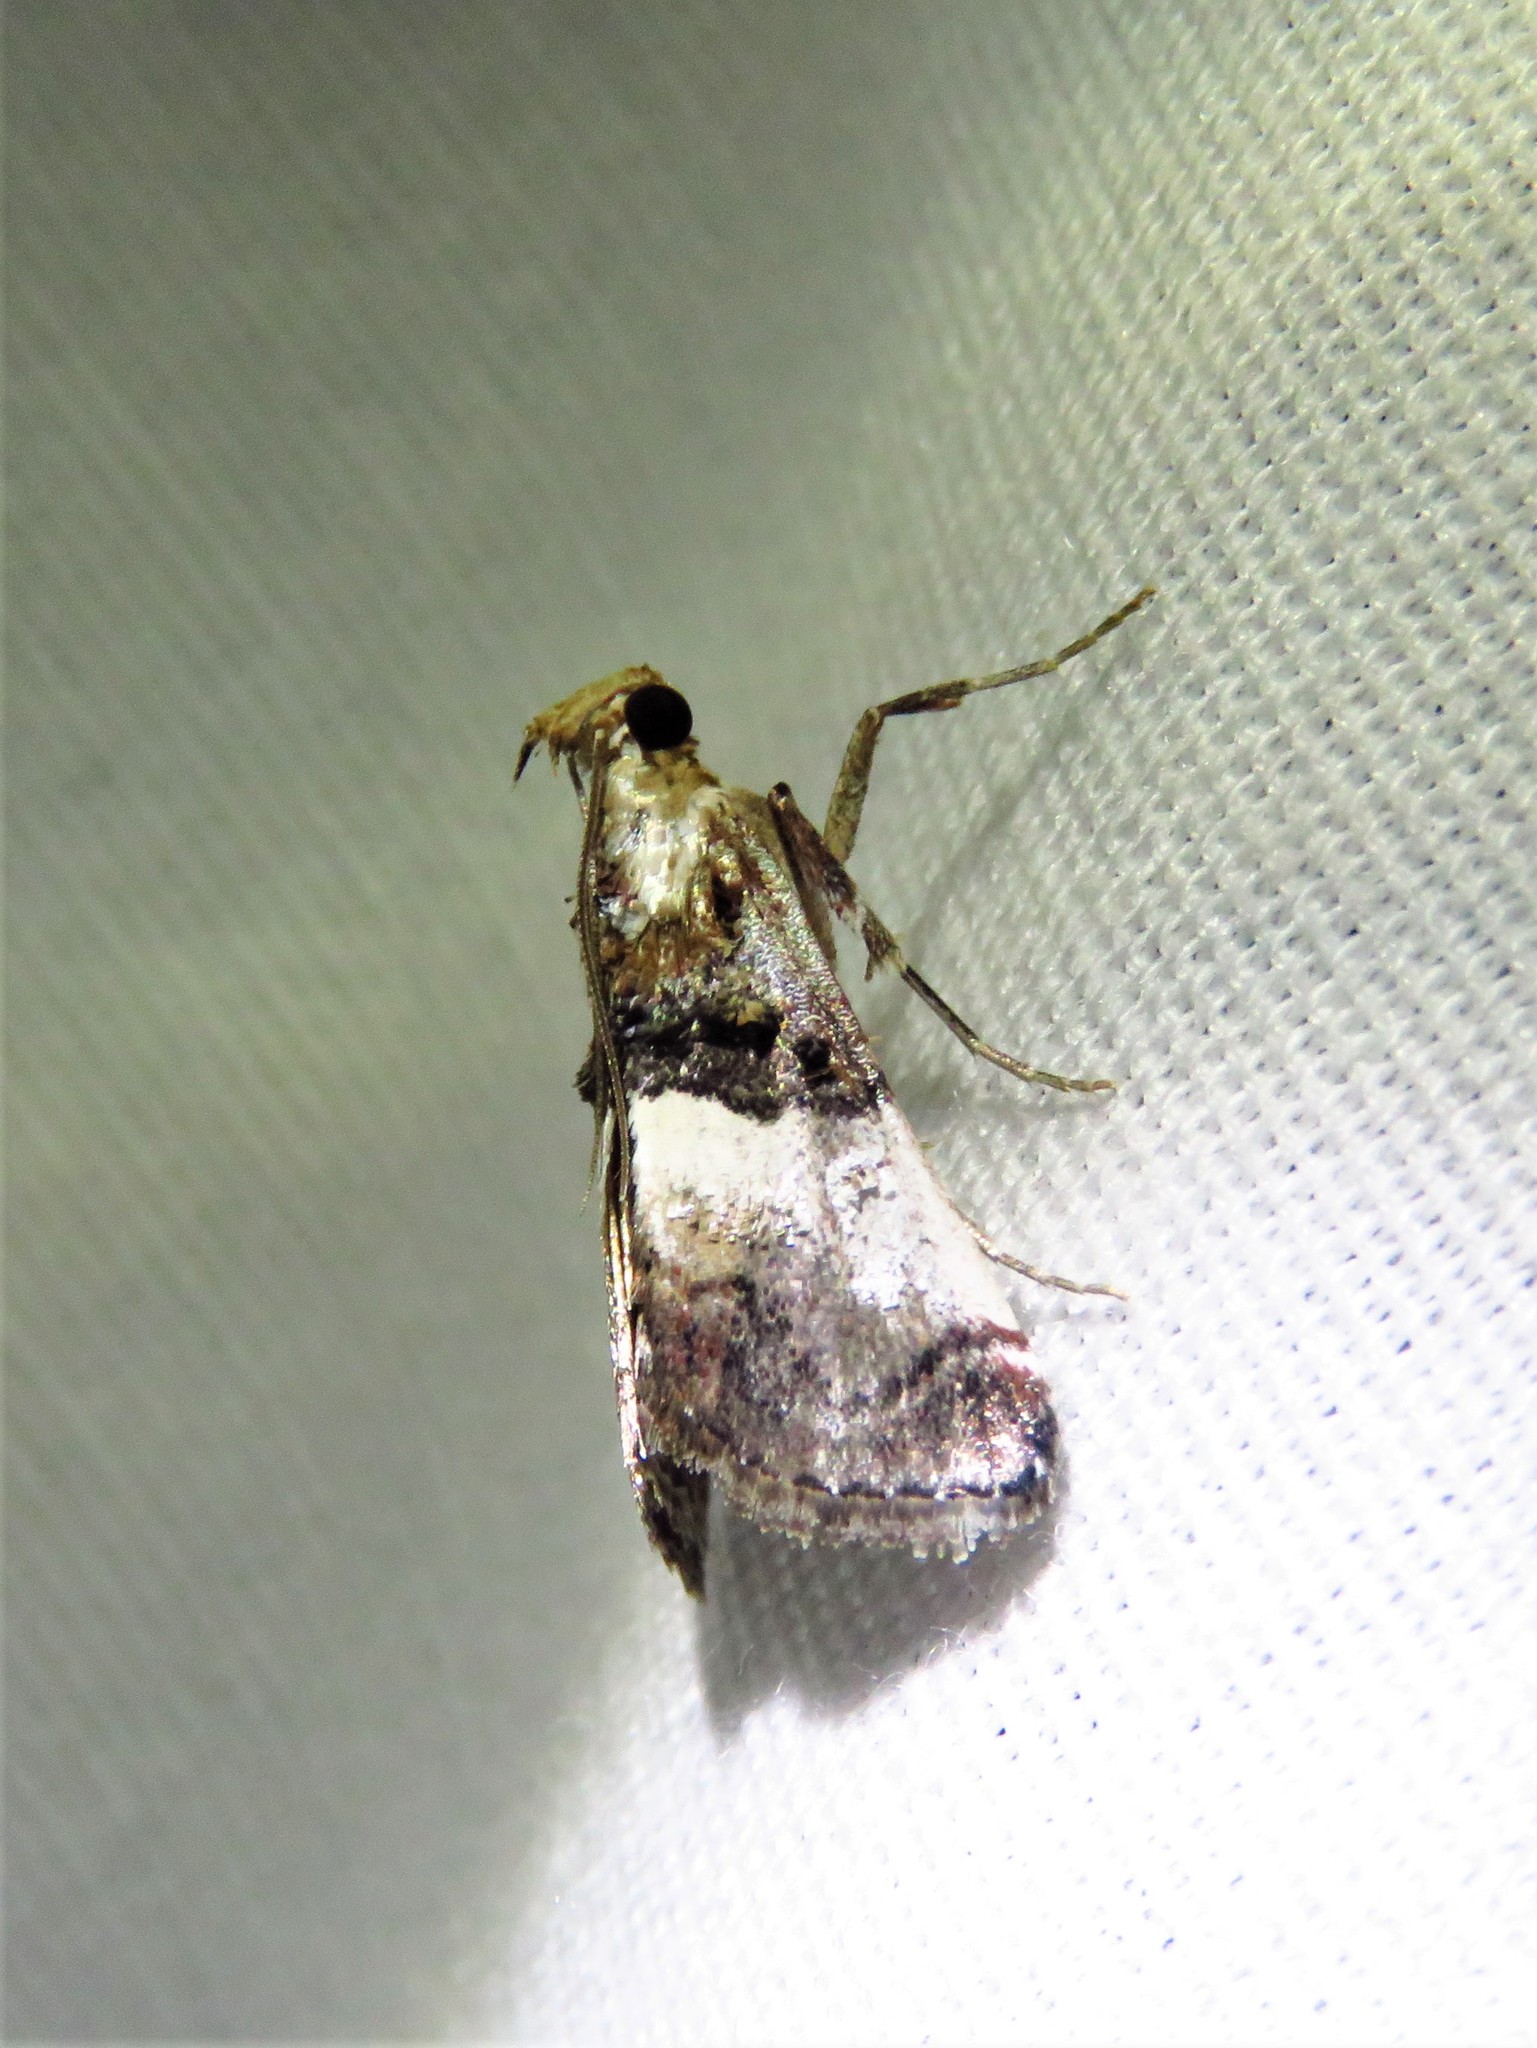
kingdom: Animalia
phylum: Arthropoda
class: Insecta
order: Lepidoptera
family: Pyralidae
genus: Toripalpus
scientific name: Toripalpus breviornatalis
